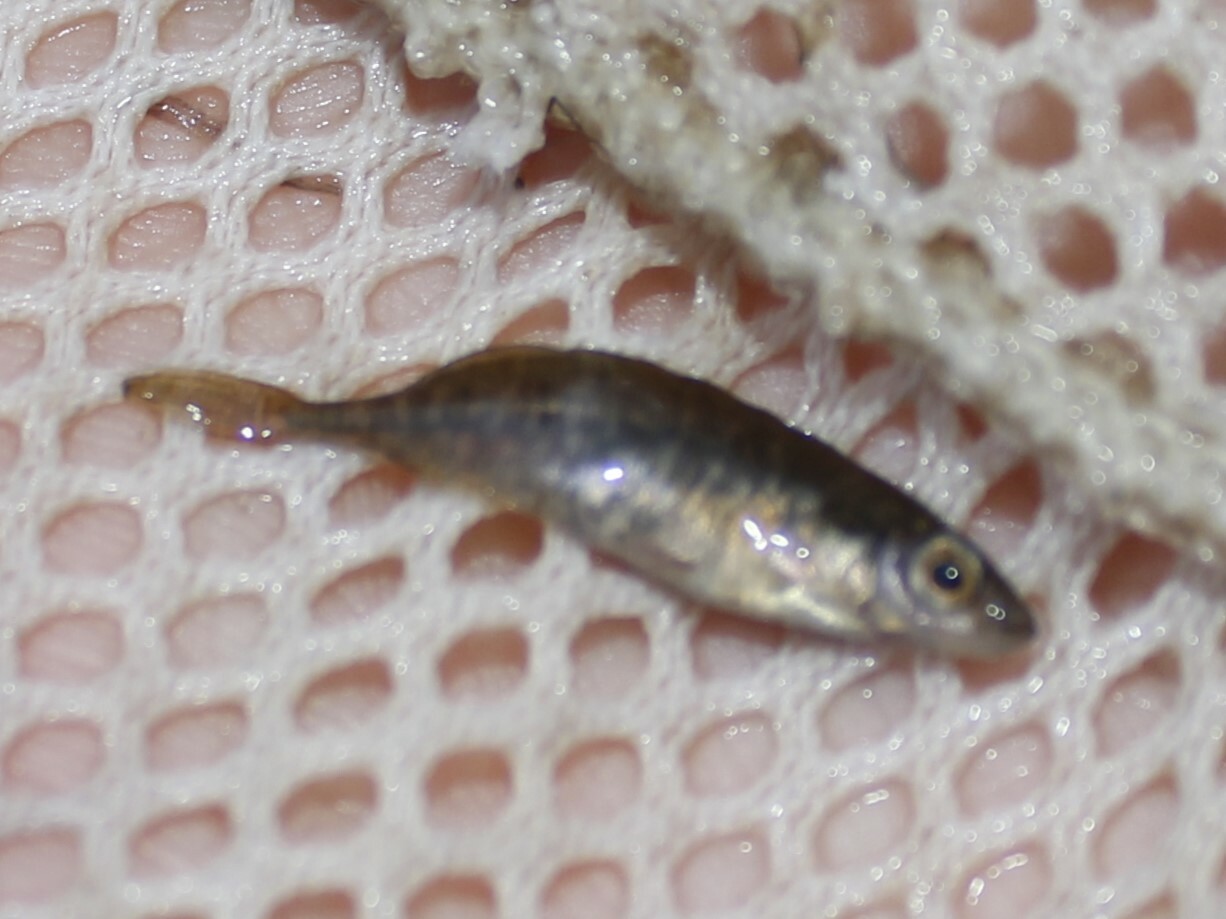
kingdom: Animalia
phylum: Chordata
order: Gasterosteiformes
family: Gasterosteidae
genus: Culaea
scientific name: Culaea inconstans
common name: Brook stickleback
